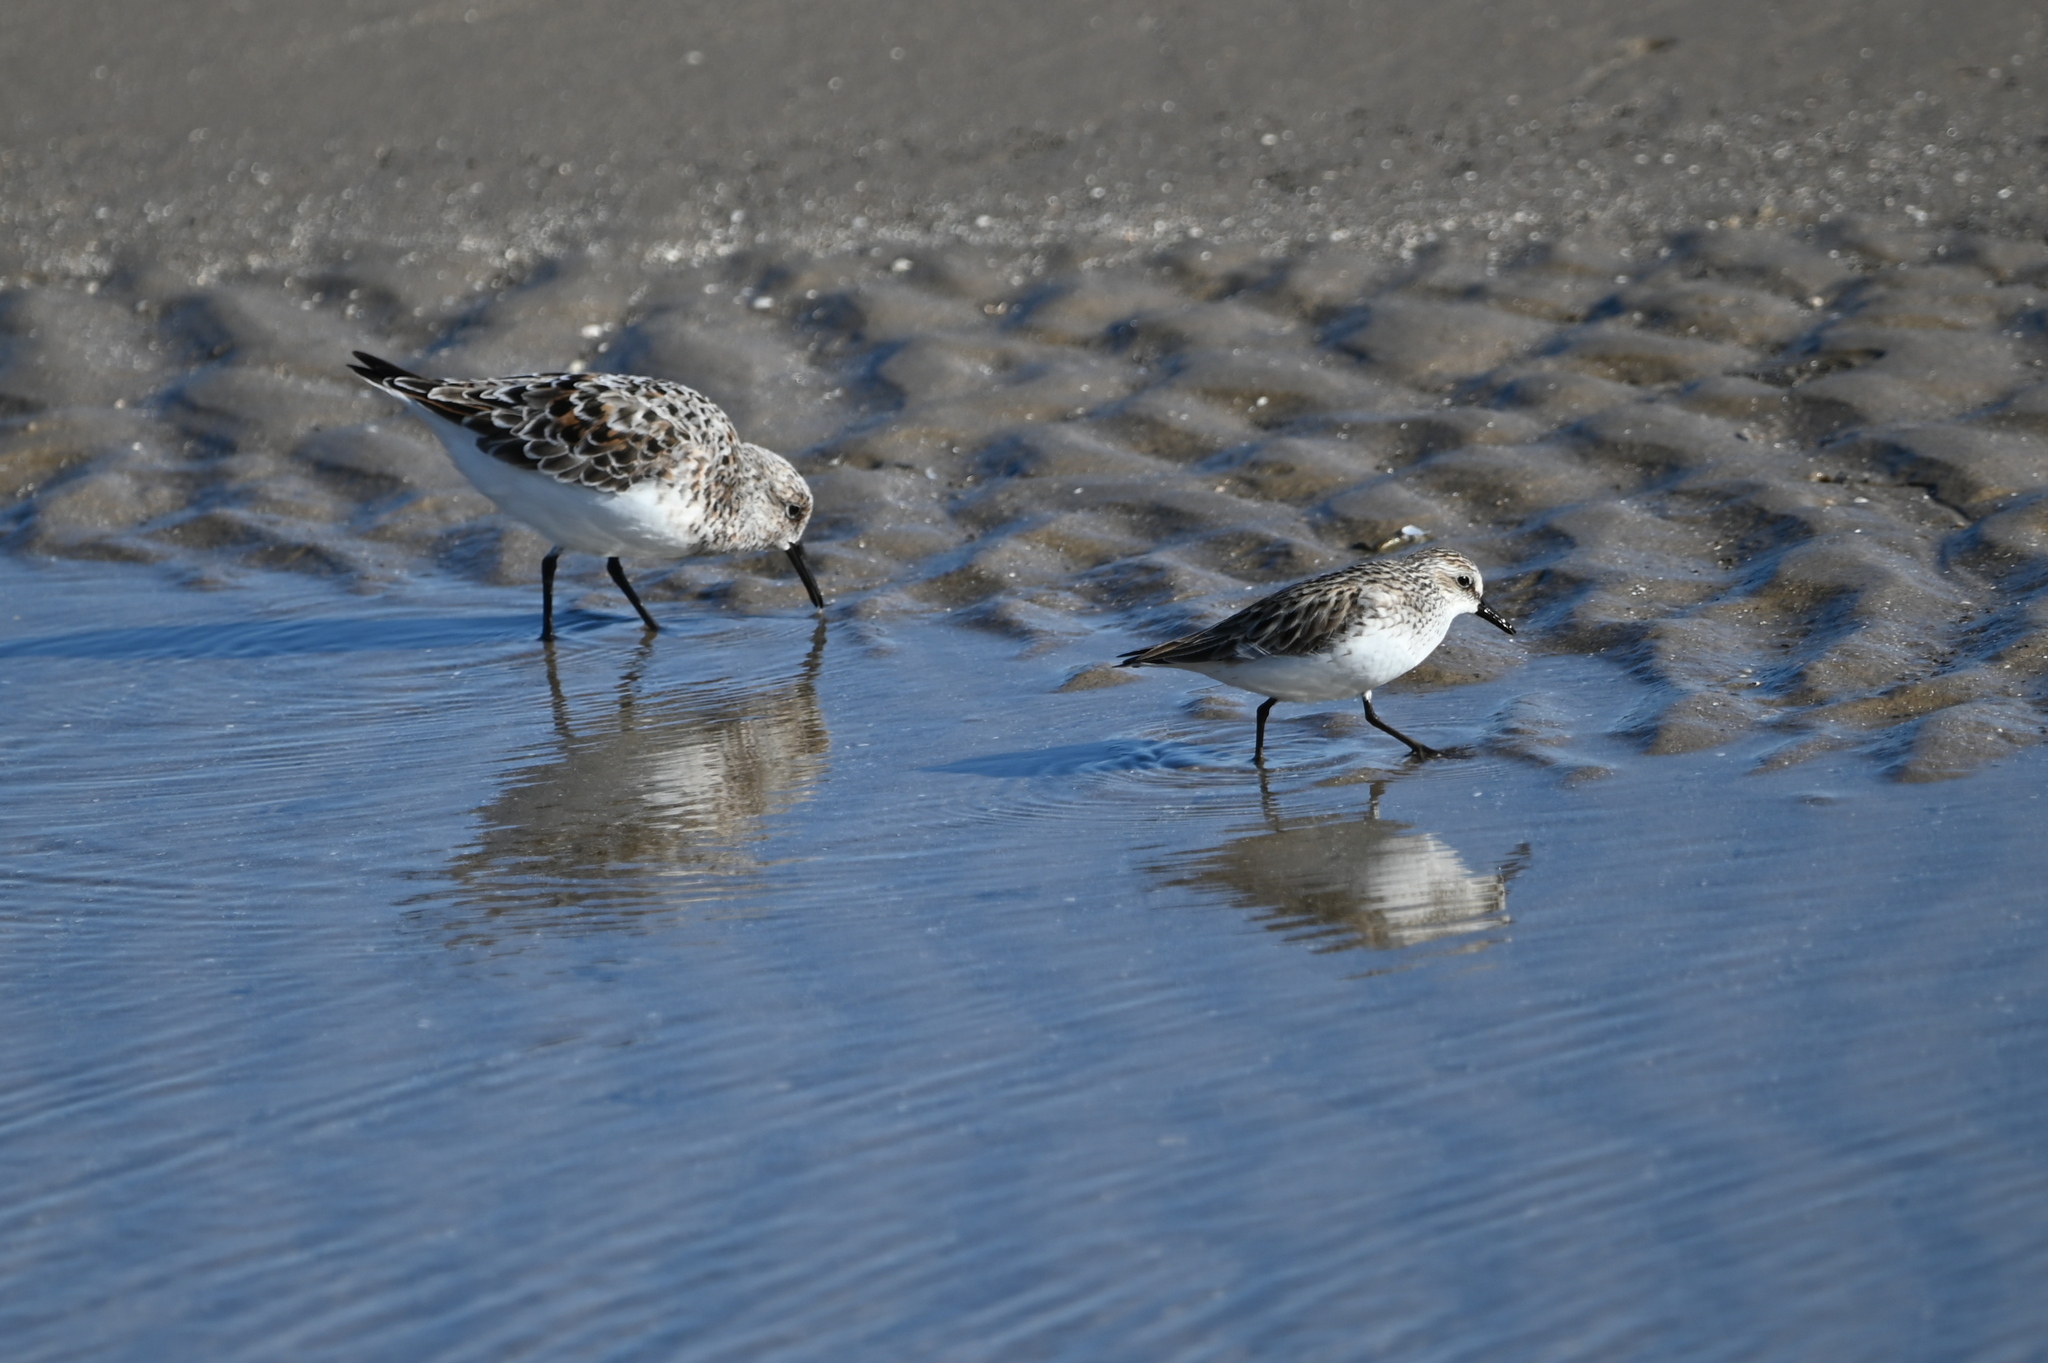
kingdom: Animalia
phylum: Chordata
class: Aves
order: Charadriiformes
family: Scolopacidae
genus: Calidris
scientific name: Calidris pusilla
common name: Semipalmated sandpiper
